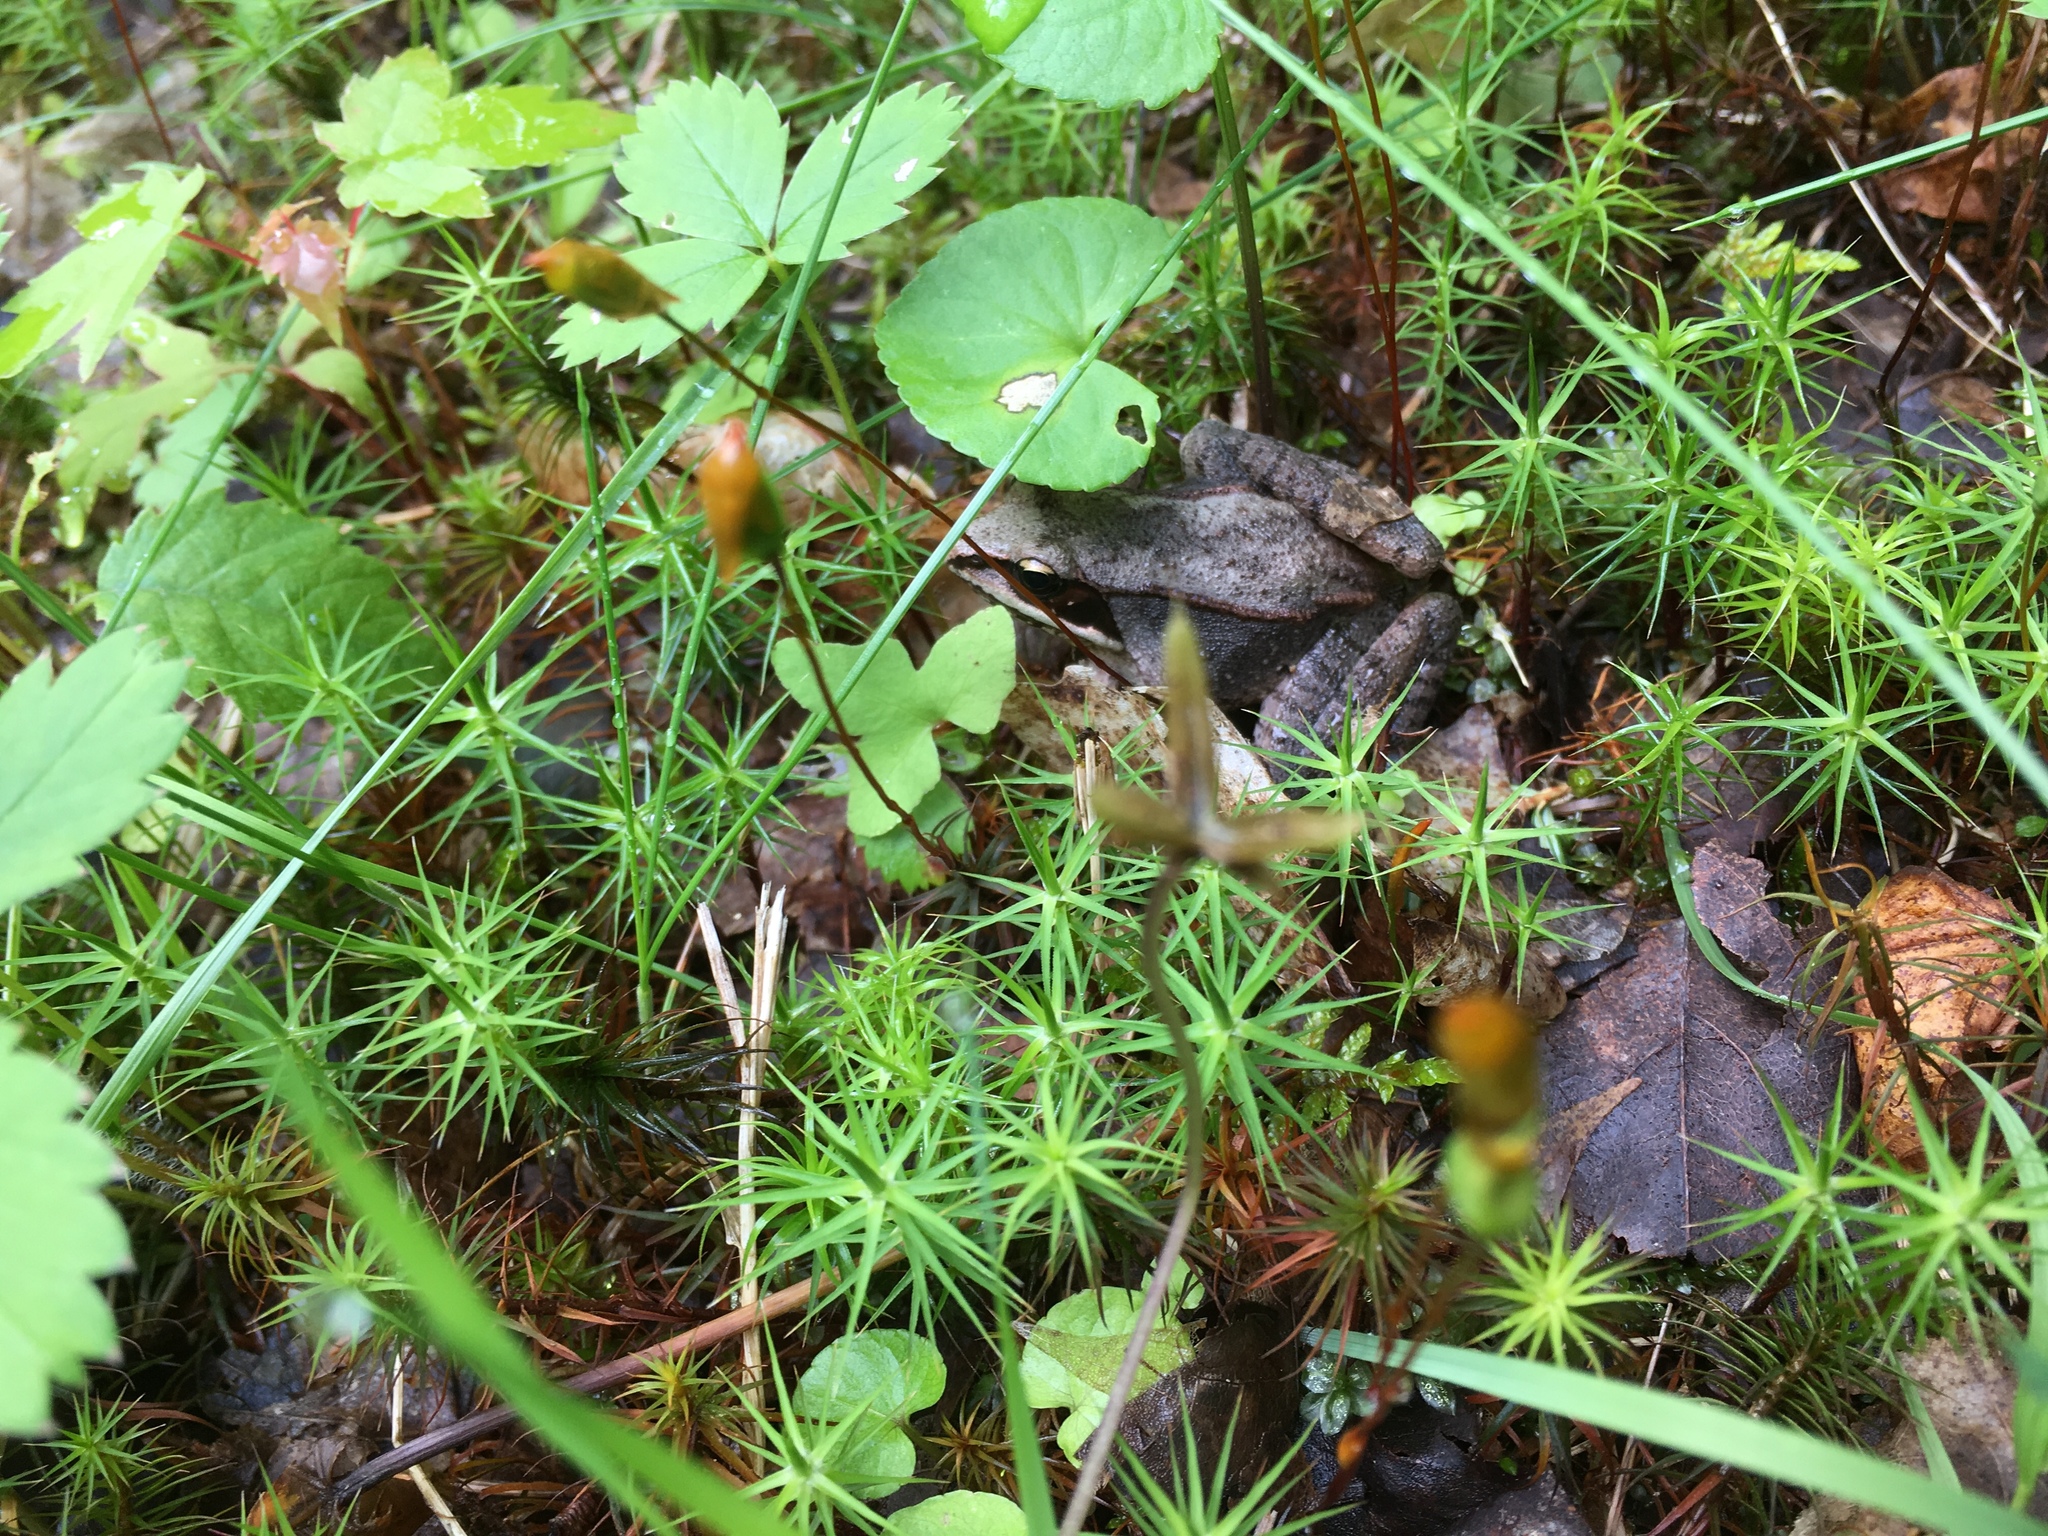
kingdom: Animalia
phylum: Chordata
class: Amphibia
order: Anura
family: Ranidae
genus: Lithobates
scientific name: Lithobates sylvaticus
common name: Wood frog
